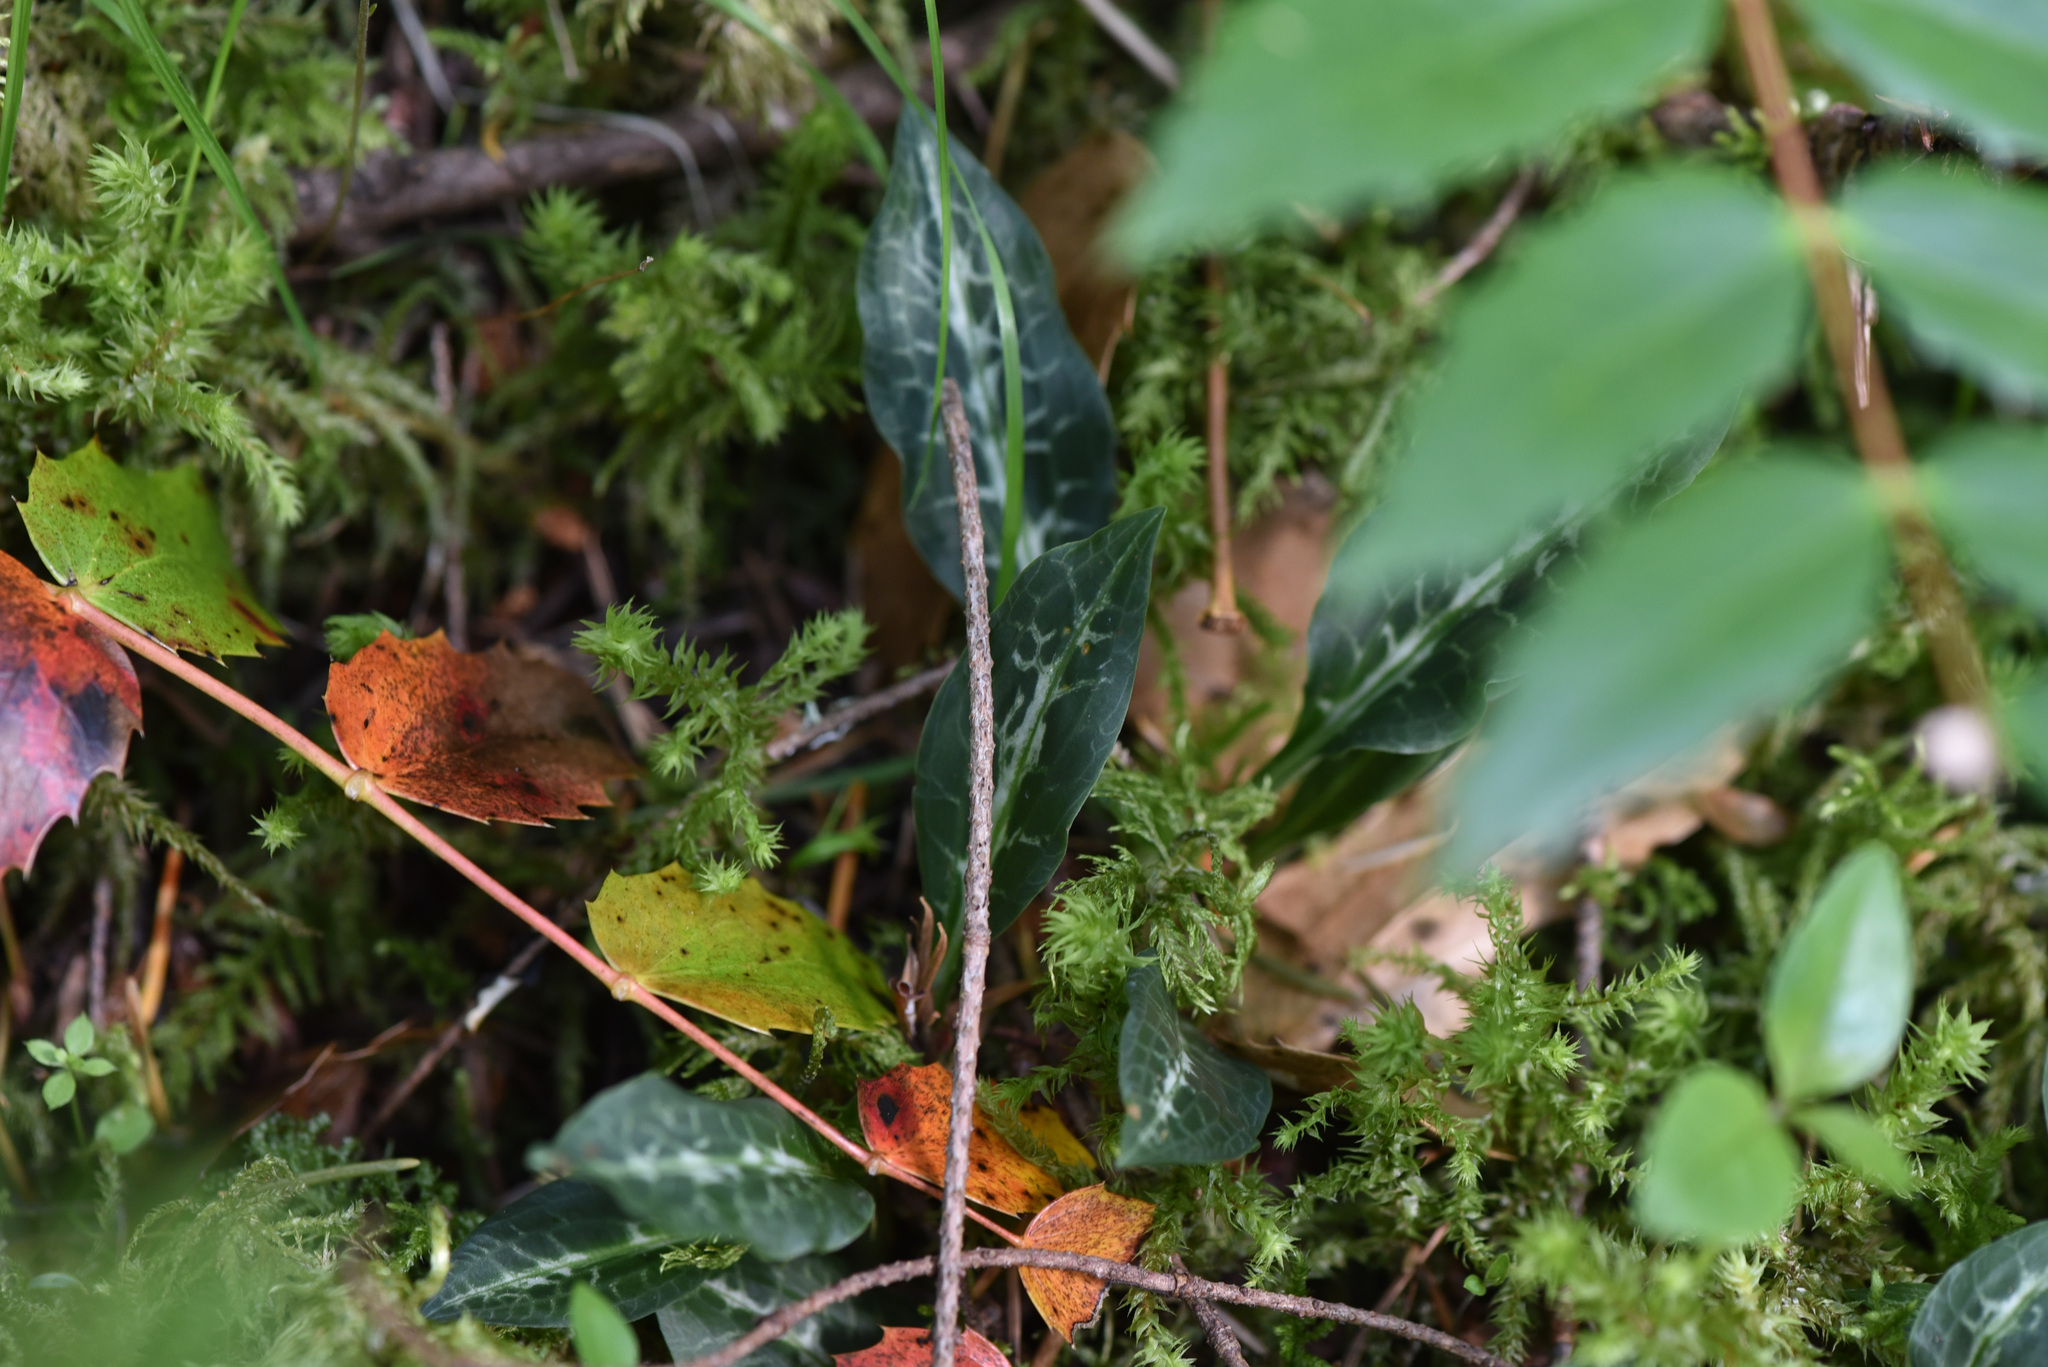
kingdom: Plantae
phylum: Bryophyta
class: Bryopsida
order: Hypnales
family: Hylocomiaceae
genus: Hylocomiadelphus
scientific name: Hylocomiadelphus triquetrus
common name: Rough goose neck moss
